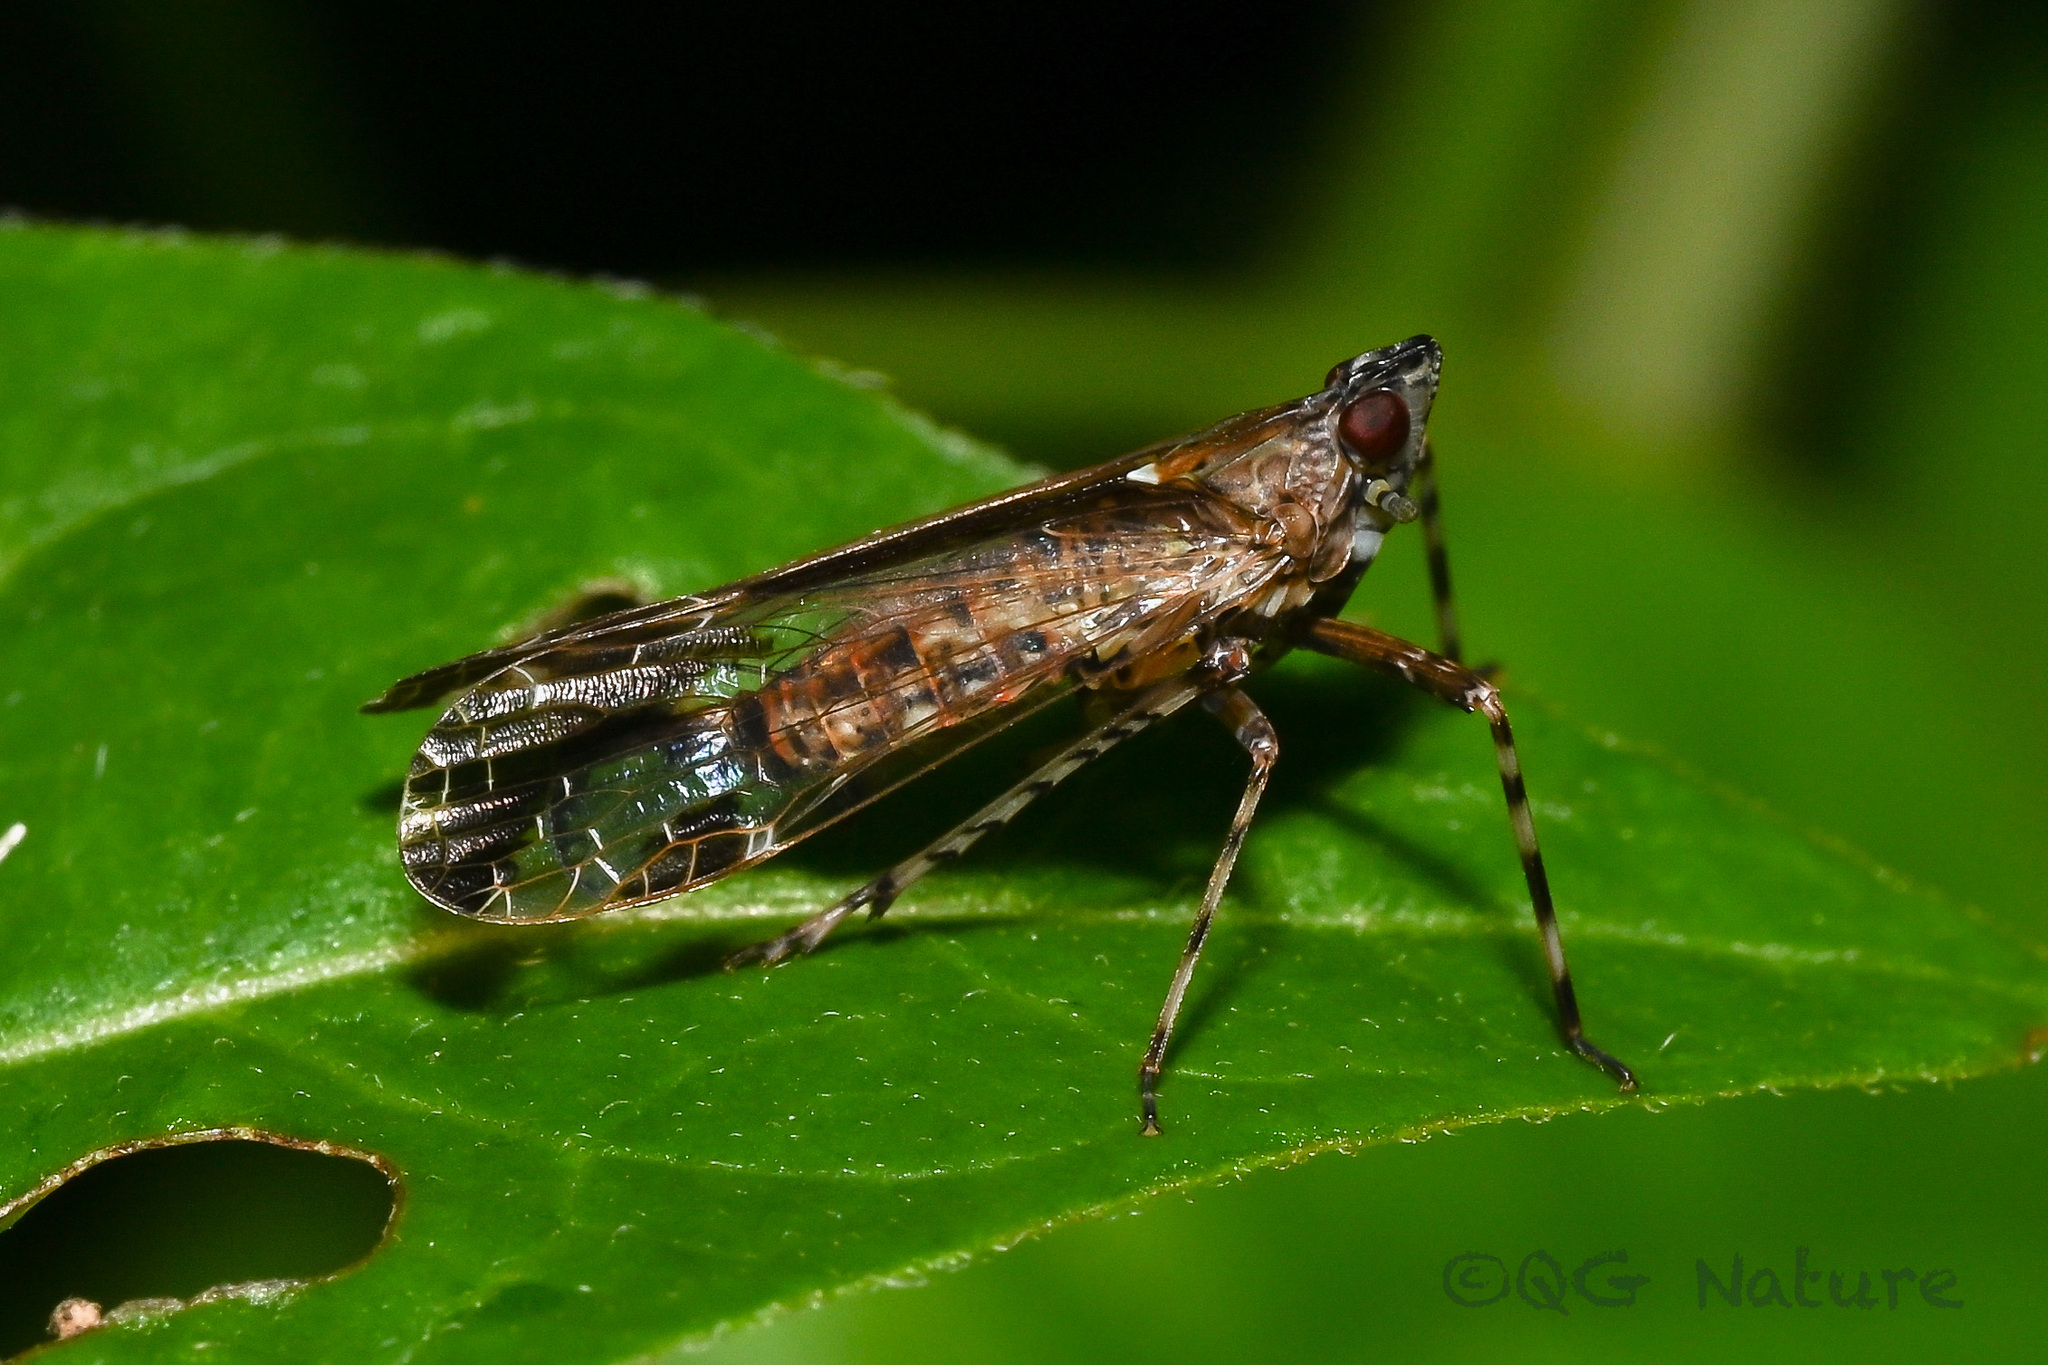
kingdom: Animalia
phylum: Arthropoda
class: Insecta
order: Hemiptera
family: Dictyopharidae
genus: Orthopagus
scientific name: Orthopagus lunulifer
